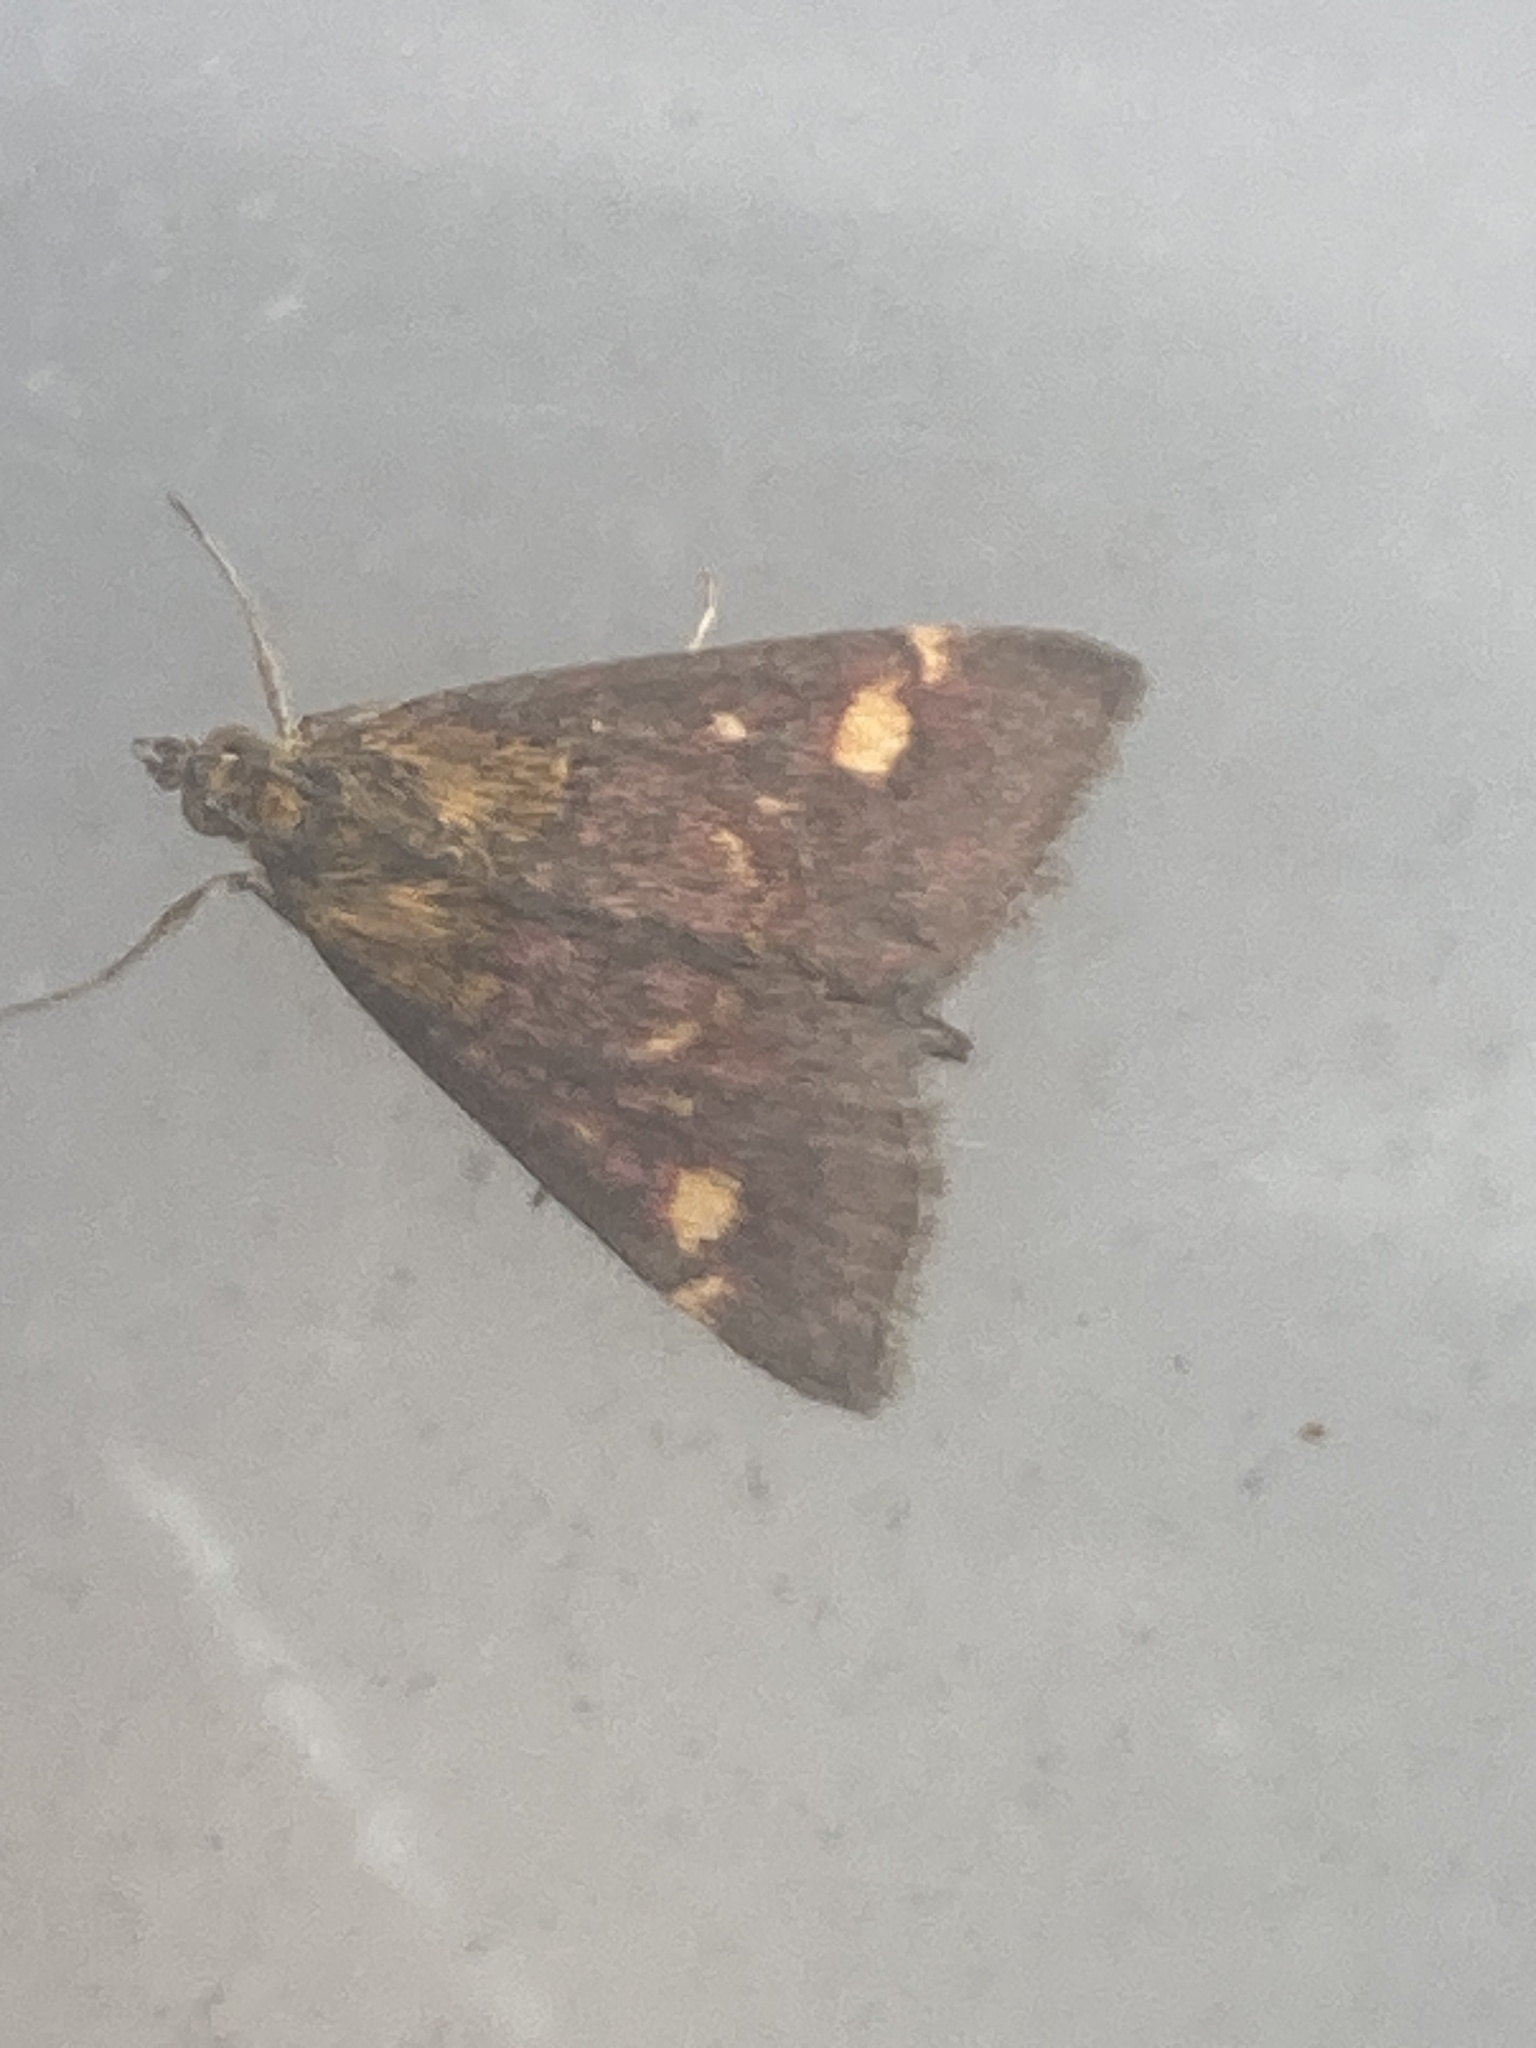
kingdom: Animalia
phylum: Arthropoda
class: Insecta
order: Lepidoptera
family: Crambidae
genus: Pyrausta
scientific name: Pyrausta aurata
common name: Small purple & gold
